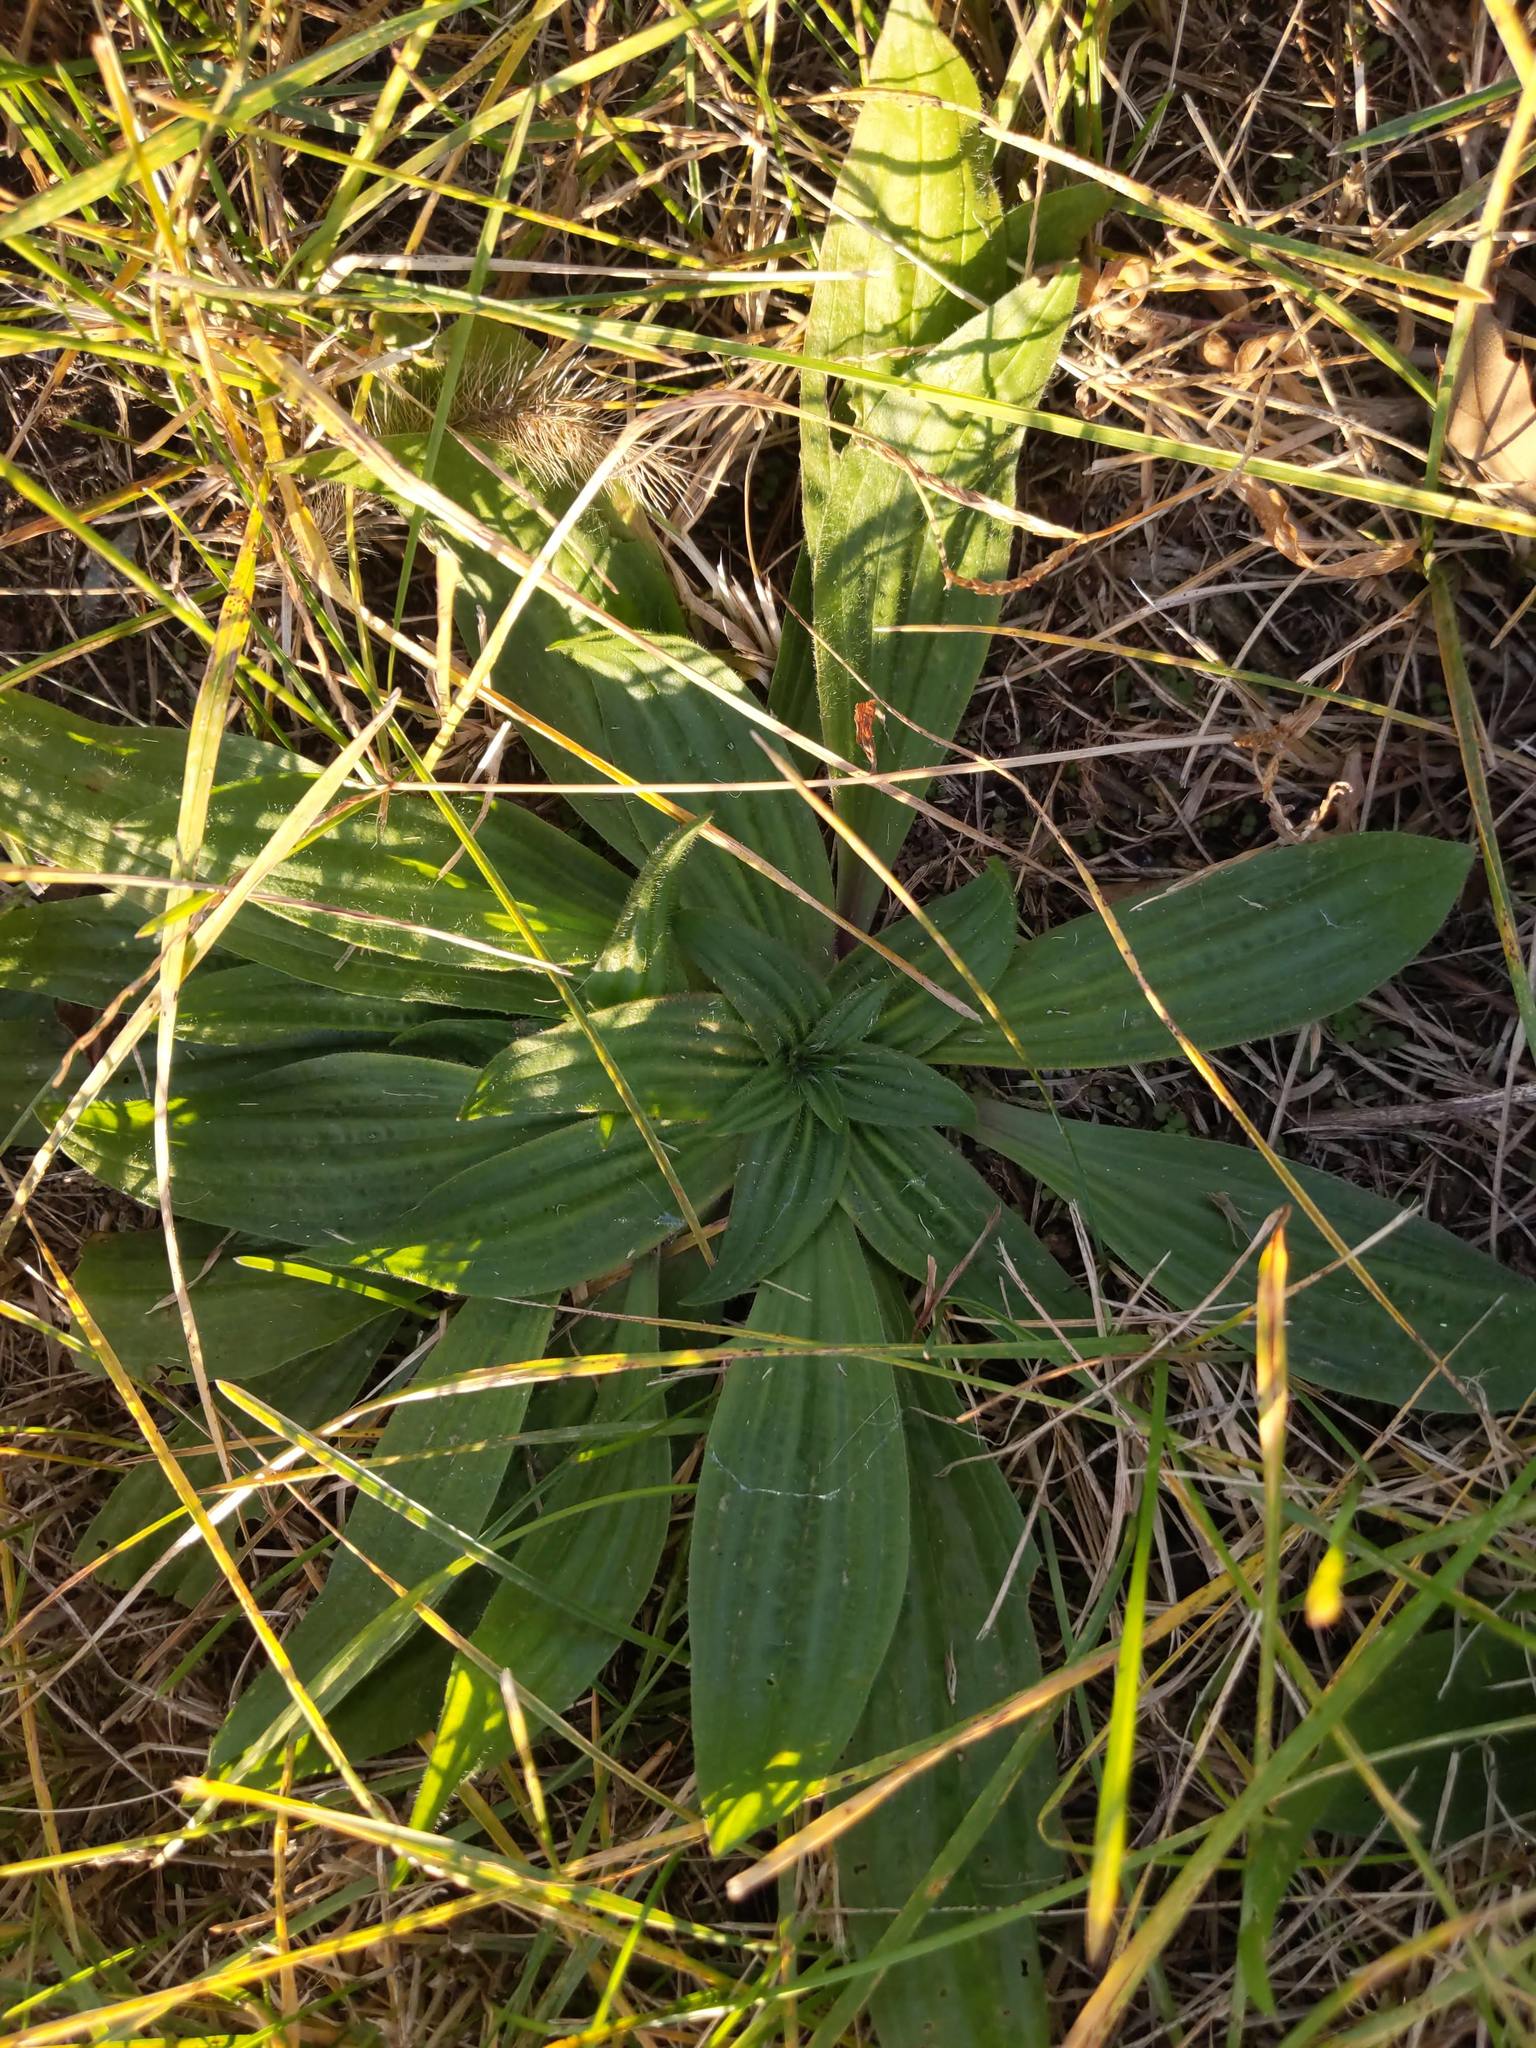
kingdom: Plantae
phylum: Tracheophyta
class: Magnoliopsida
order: Lamiales
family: Plantaginaceae
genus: Plantago
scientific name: Plantago lanceolata
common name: Ribwort plantain
